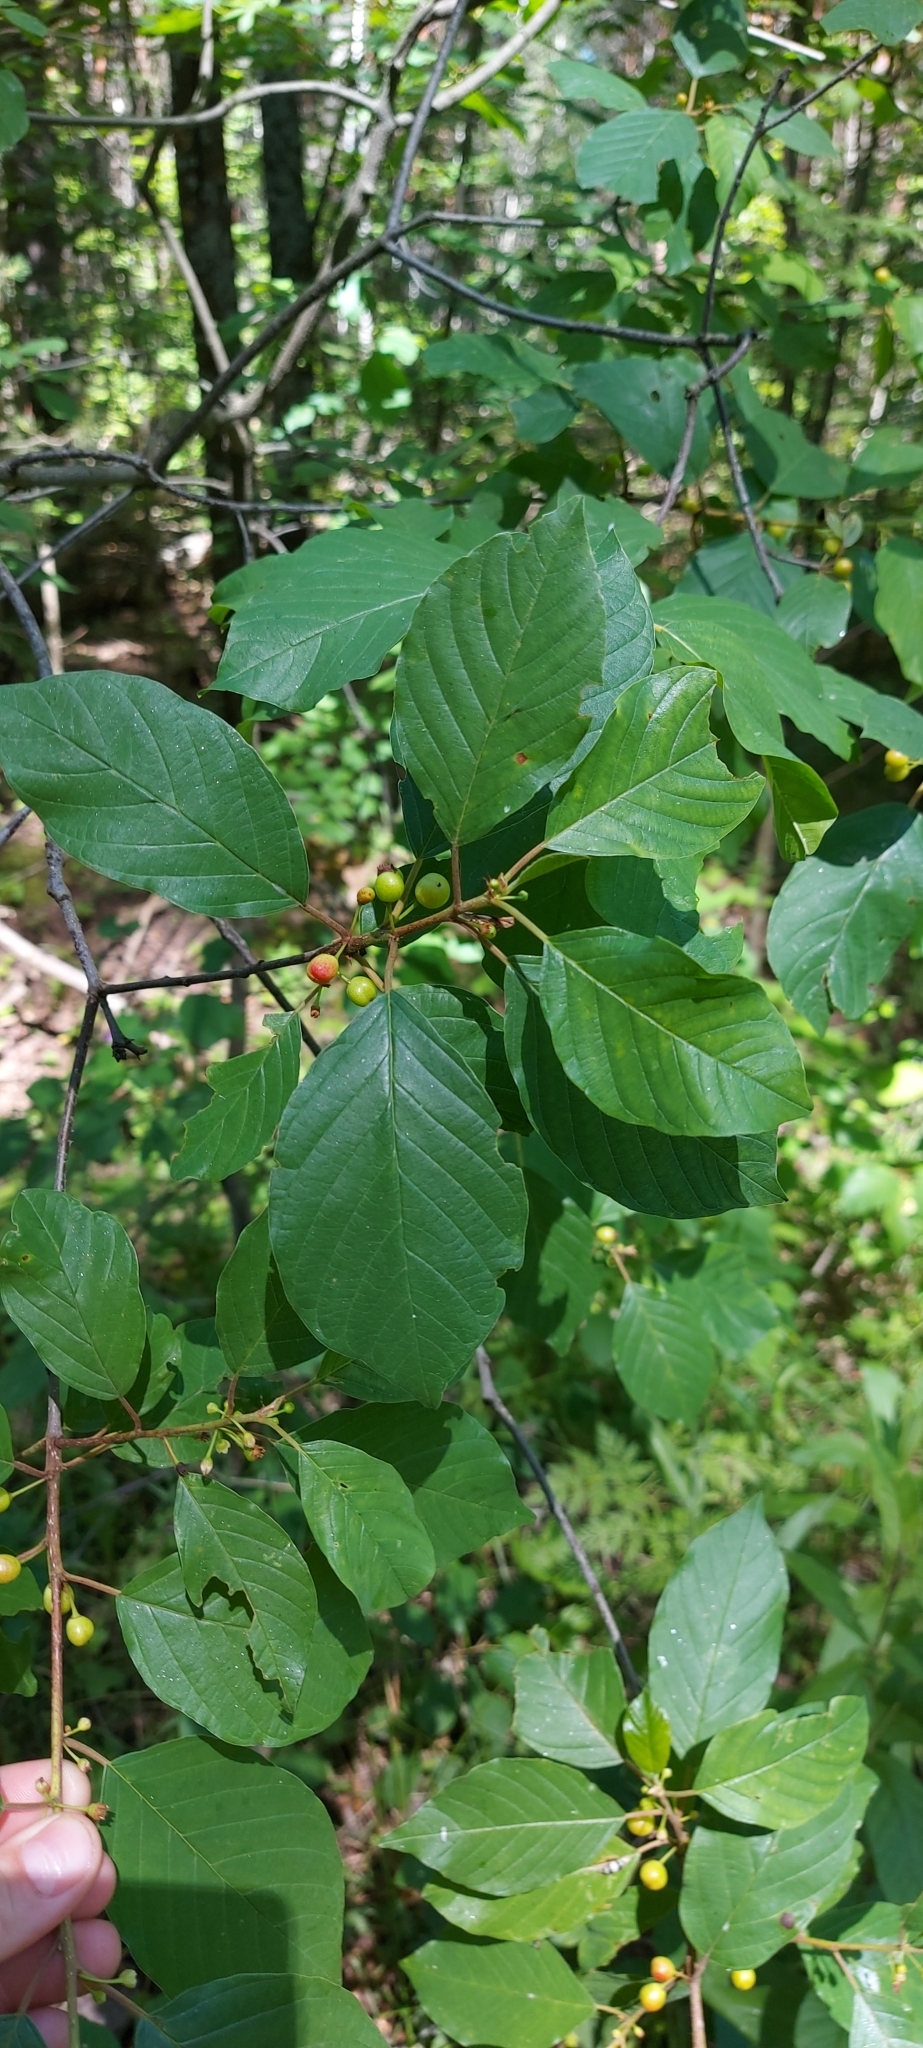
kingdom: Plantae
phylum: Tracheophyta
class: Magnoliopsida
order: Rosales
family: Rhamnaceae
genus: Frangula
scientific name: Frangula alnus
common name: Alder buckthorn
